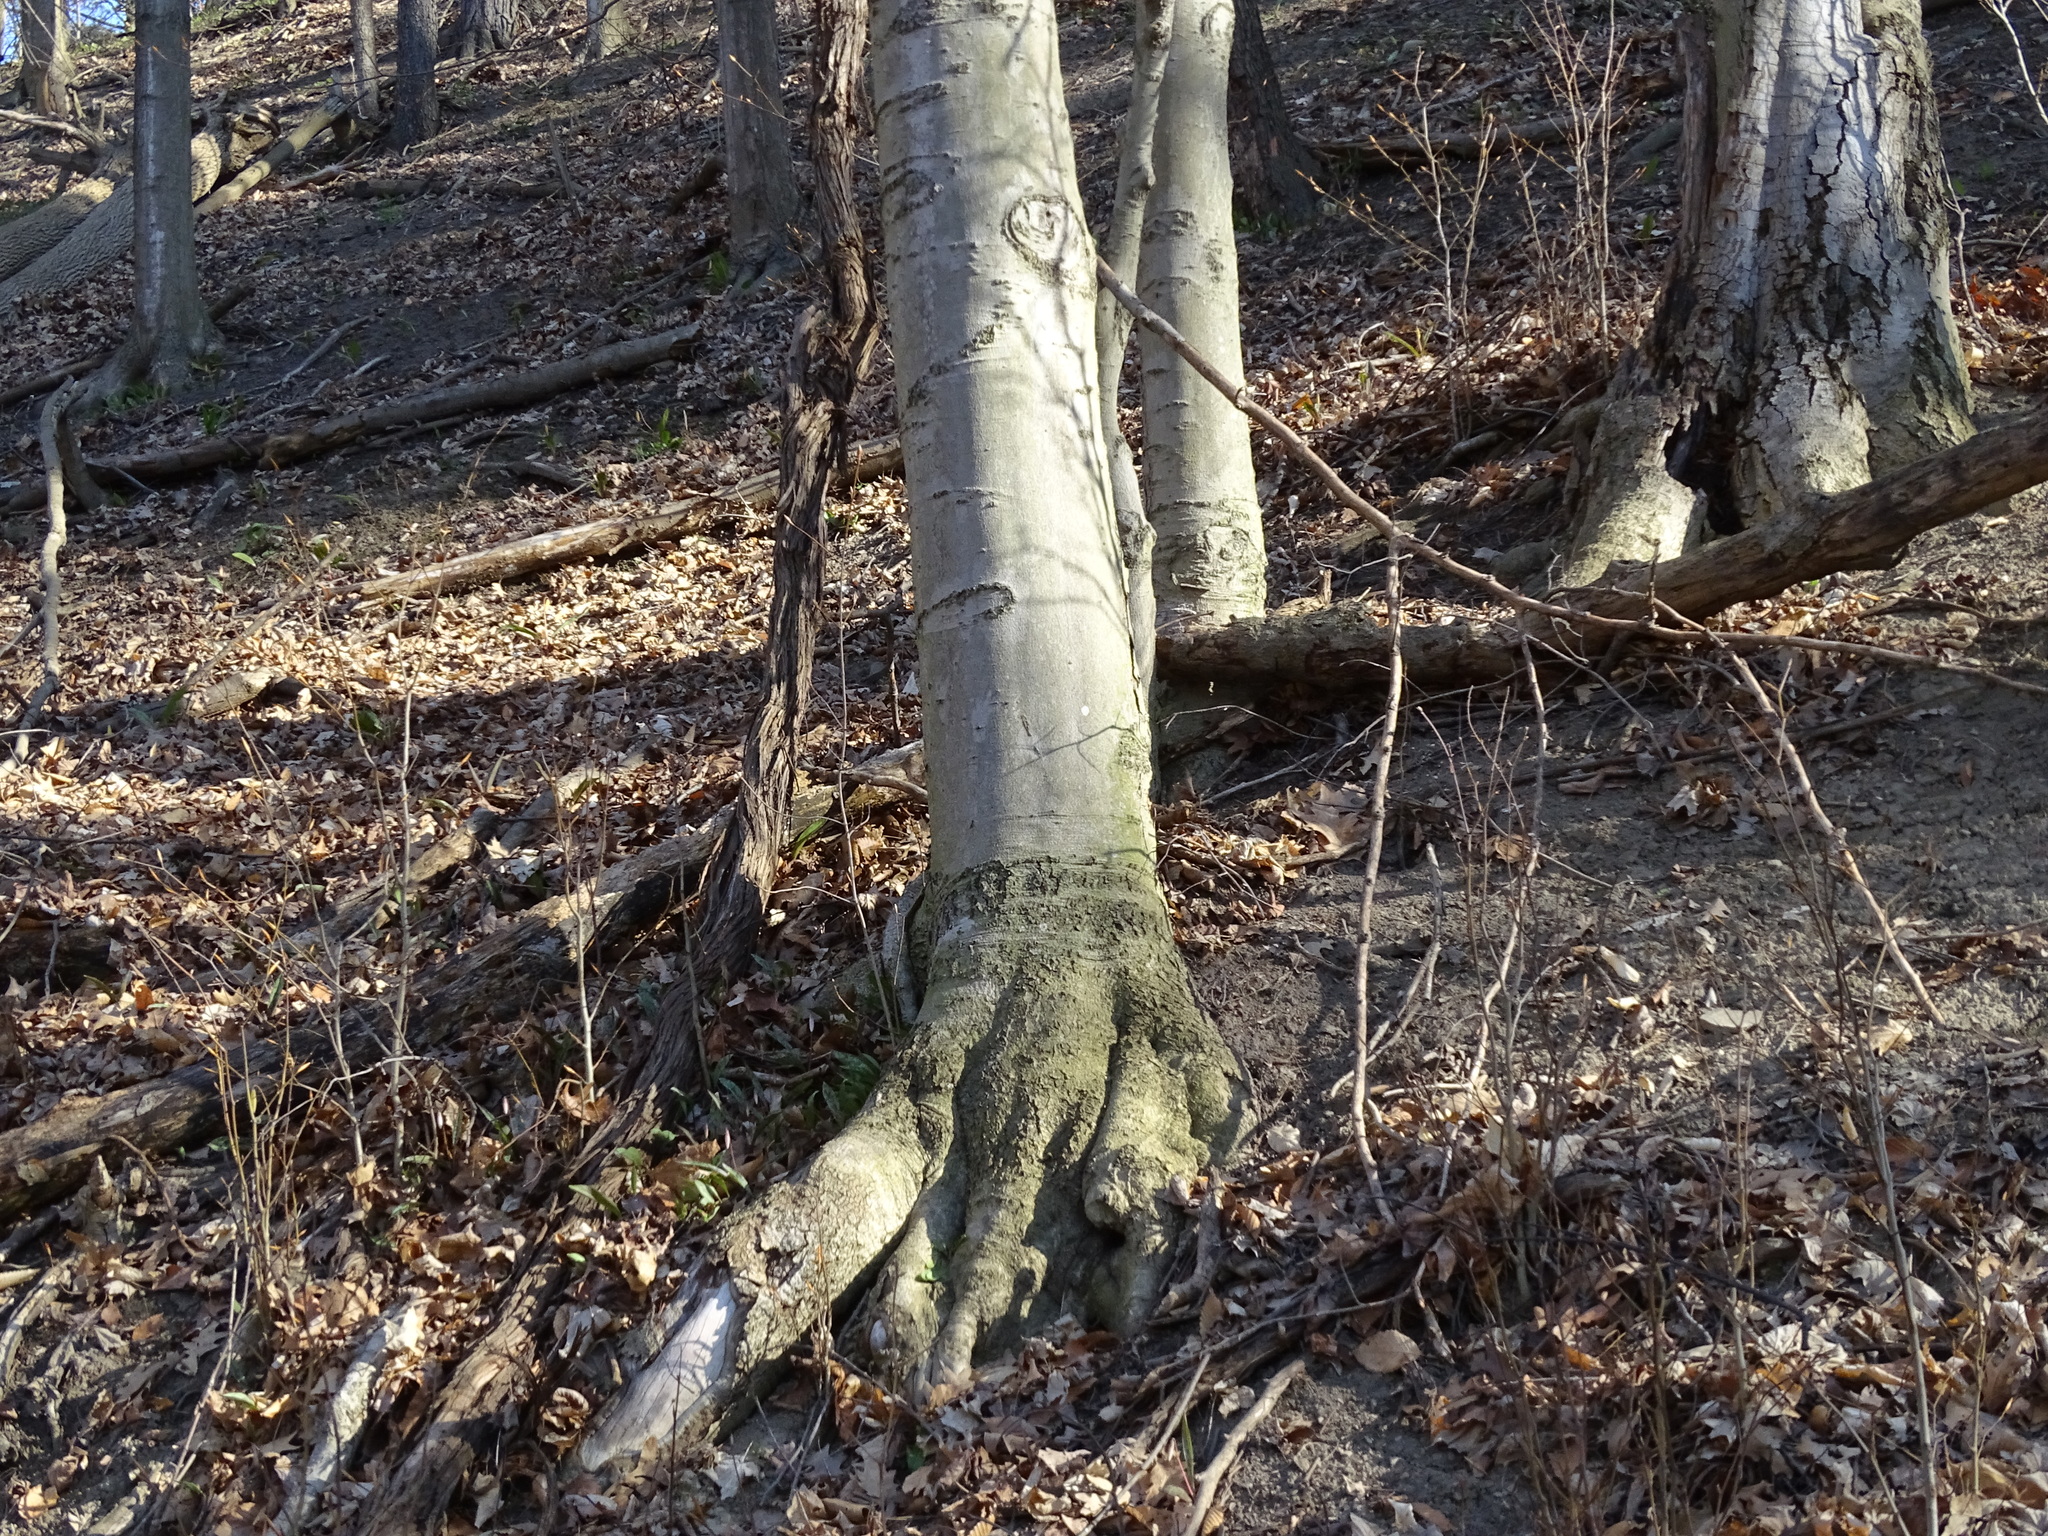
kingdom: Plantae
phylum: Tracheophyta
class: Magnoliopsida
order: Fagales
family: Fagaceae
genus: Fagus
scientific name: Fagus grandifolia
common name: American beech
